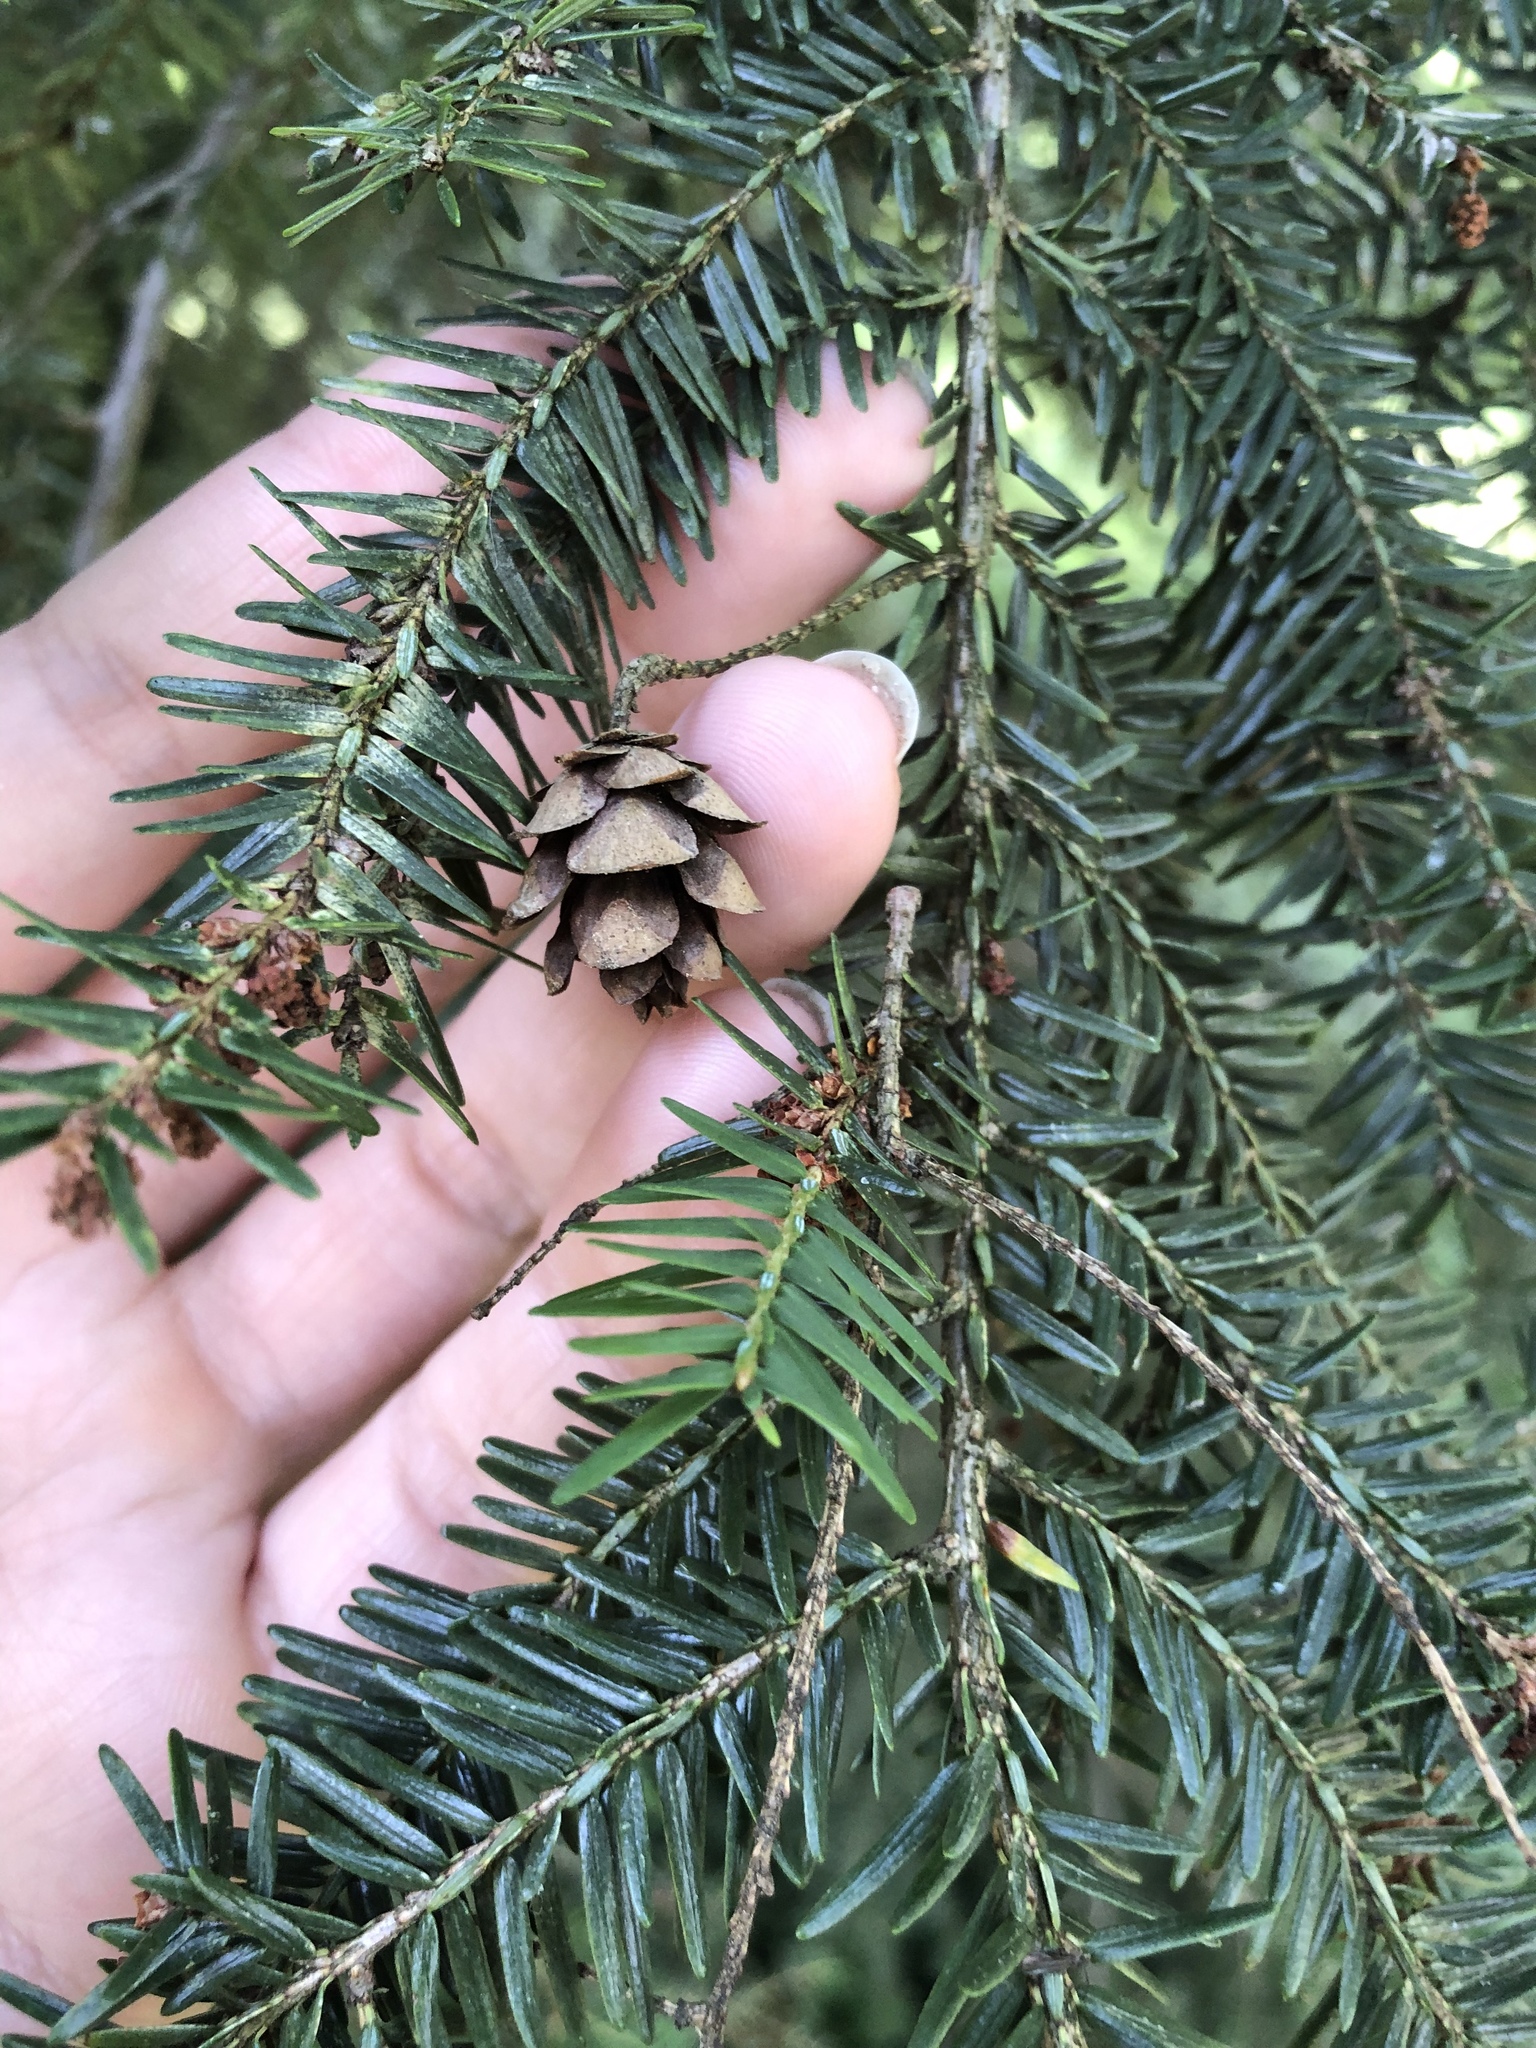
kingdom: Plantae
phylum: Tracheophyta
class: Pinopsida
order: Pinales
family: Pinaceae
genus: Tsuga
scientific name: Tsuga canadensis
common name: Eastern hemlock
